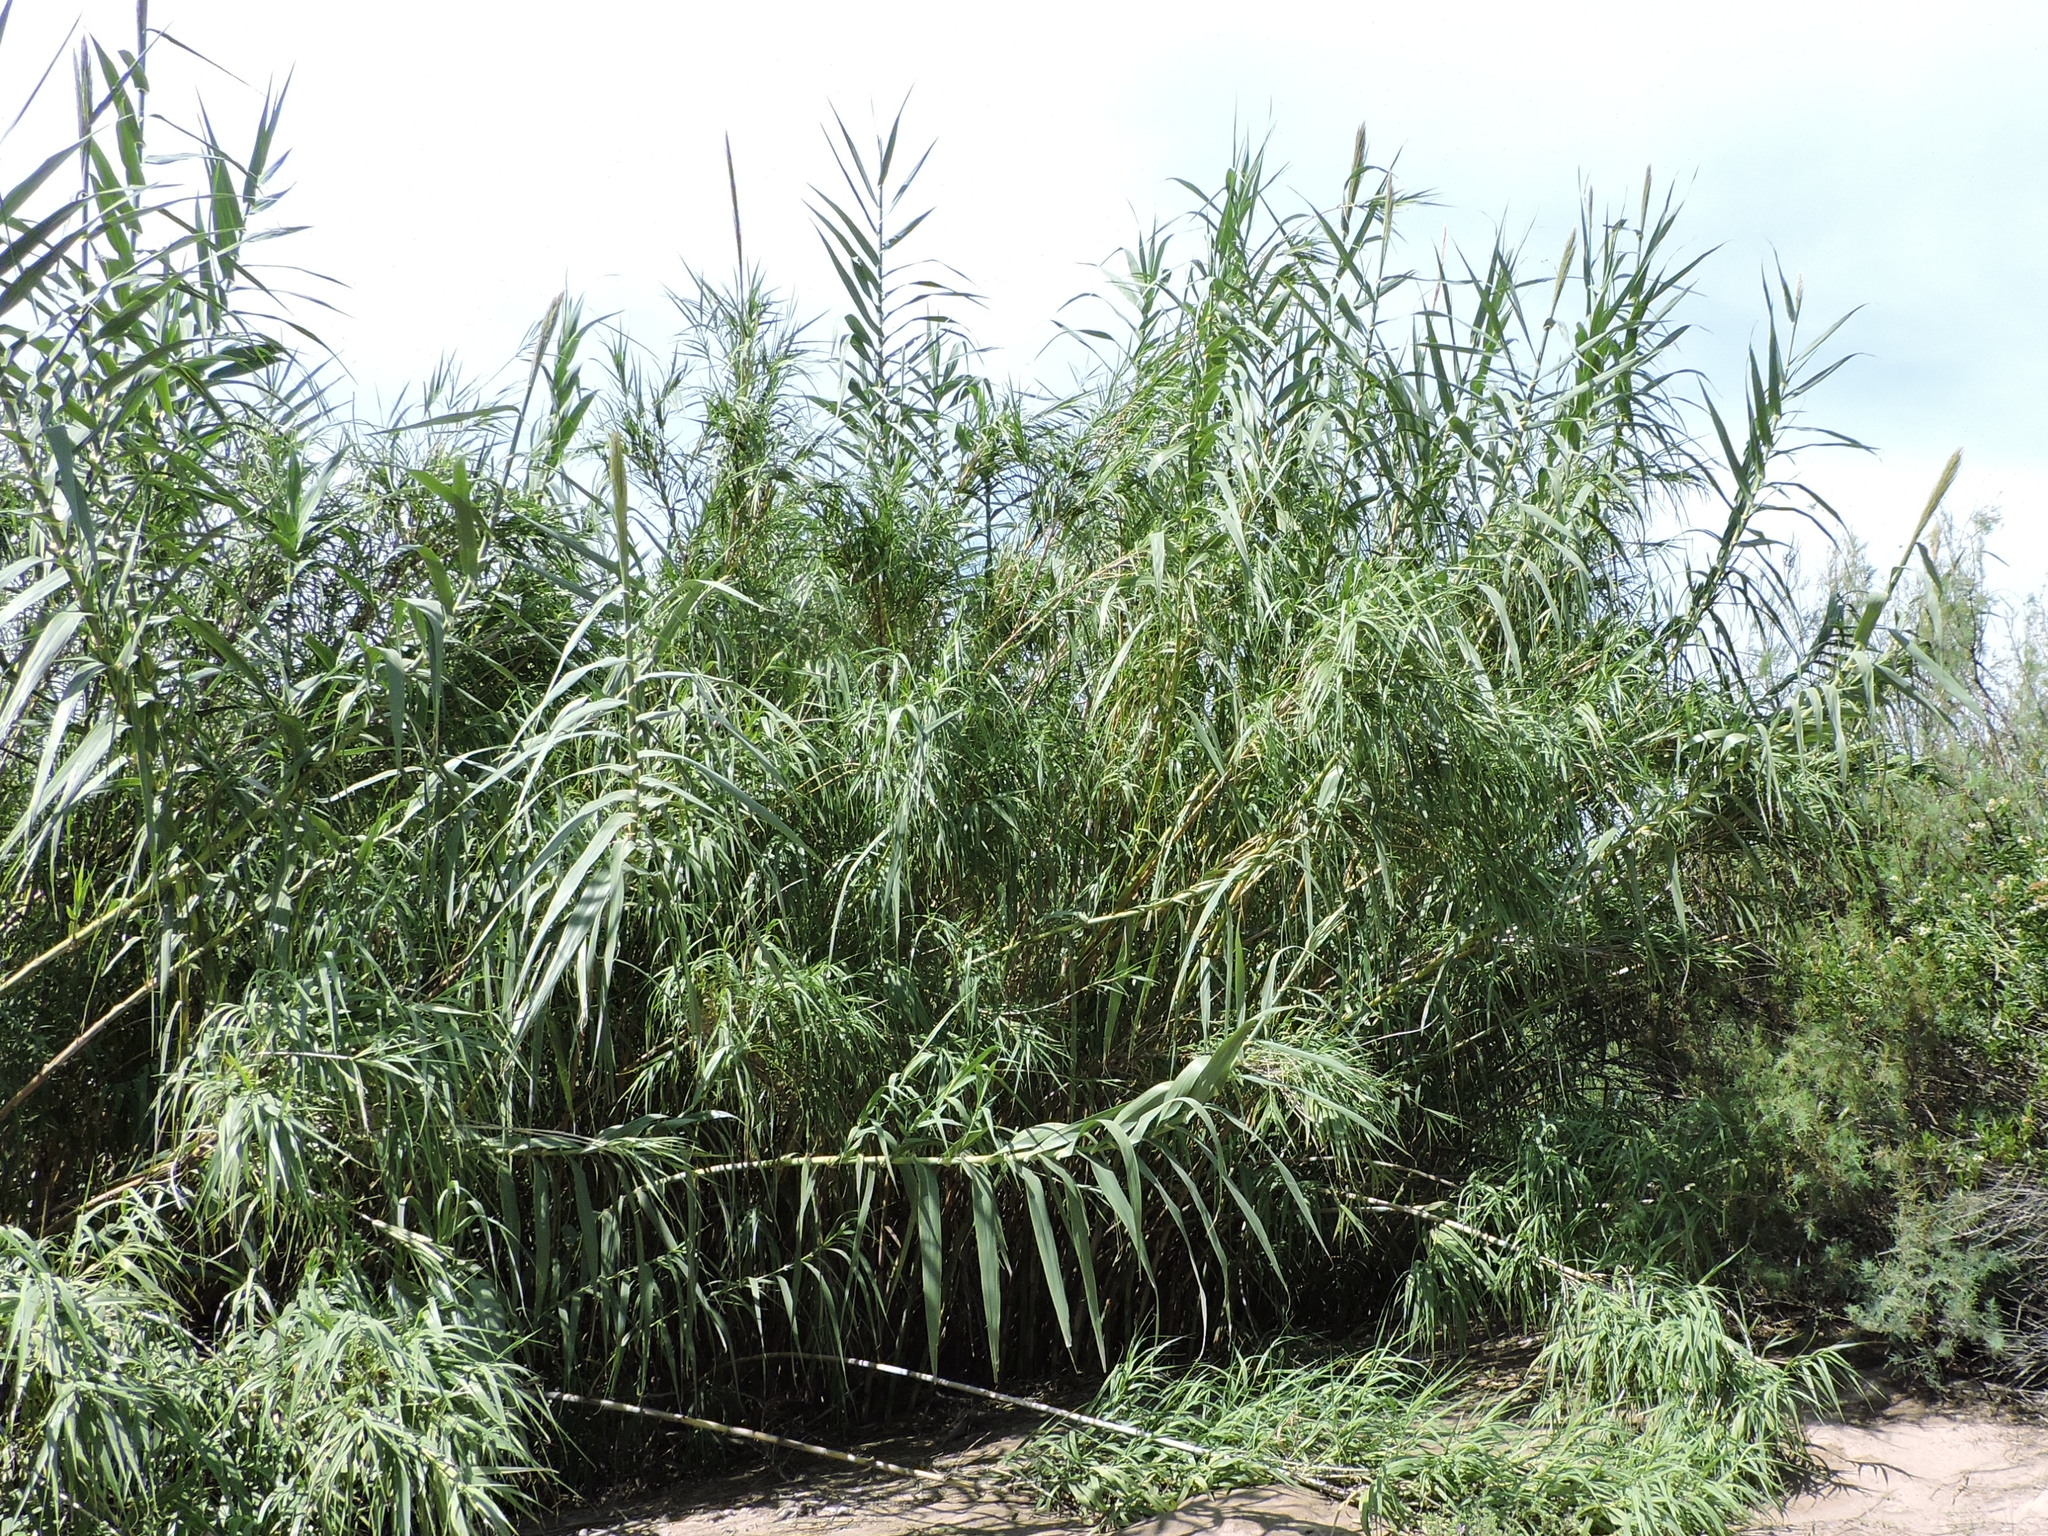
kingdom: Plantae
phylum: Tracheophyta
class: Liliopsida
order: Poales
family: Poaceae
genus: Arundo
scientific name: Arundo donax
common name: Giant reed
